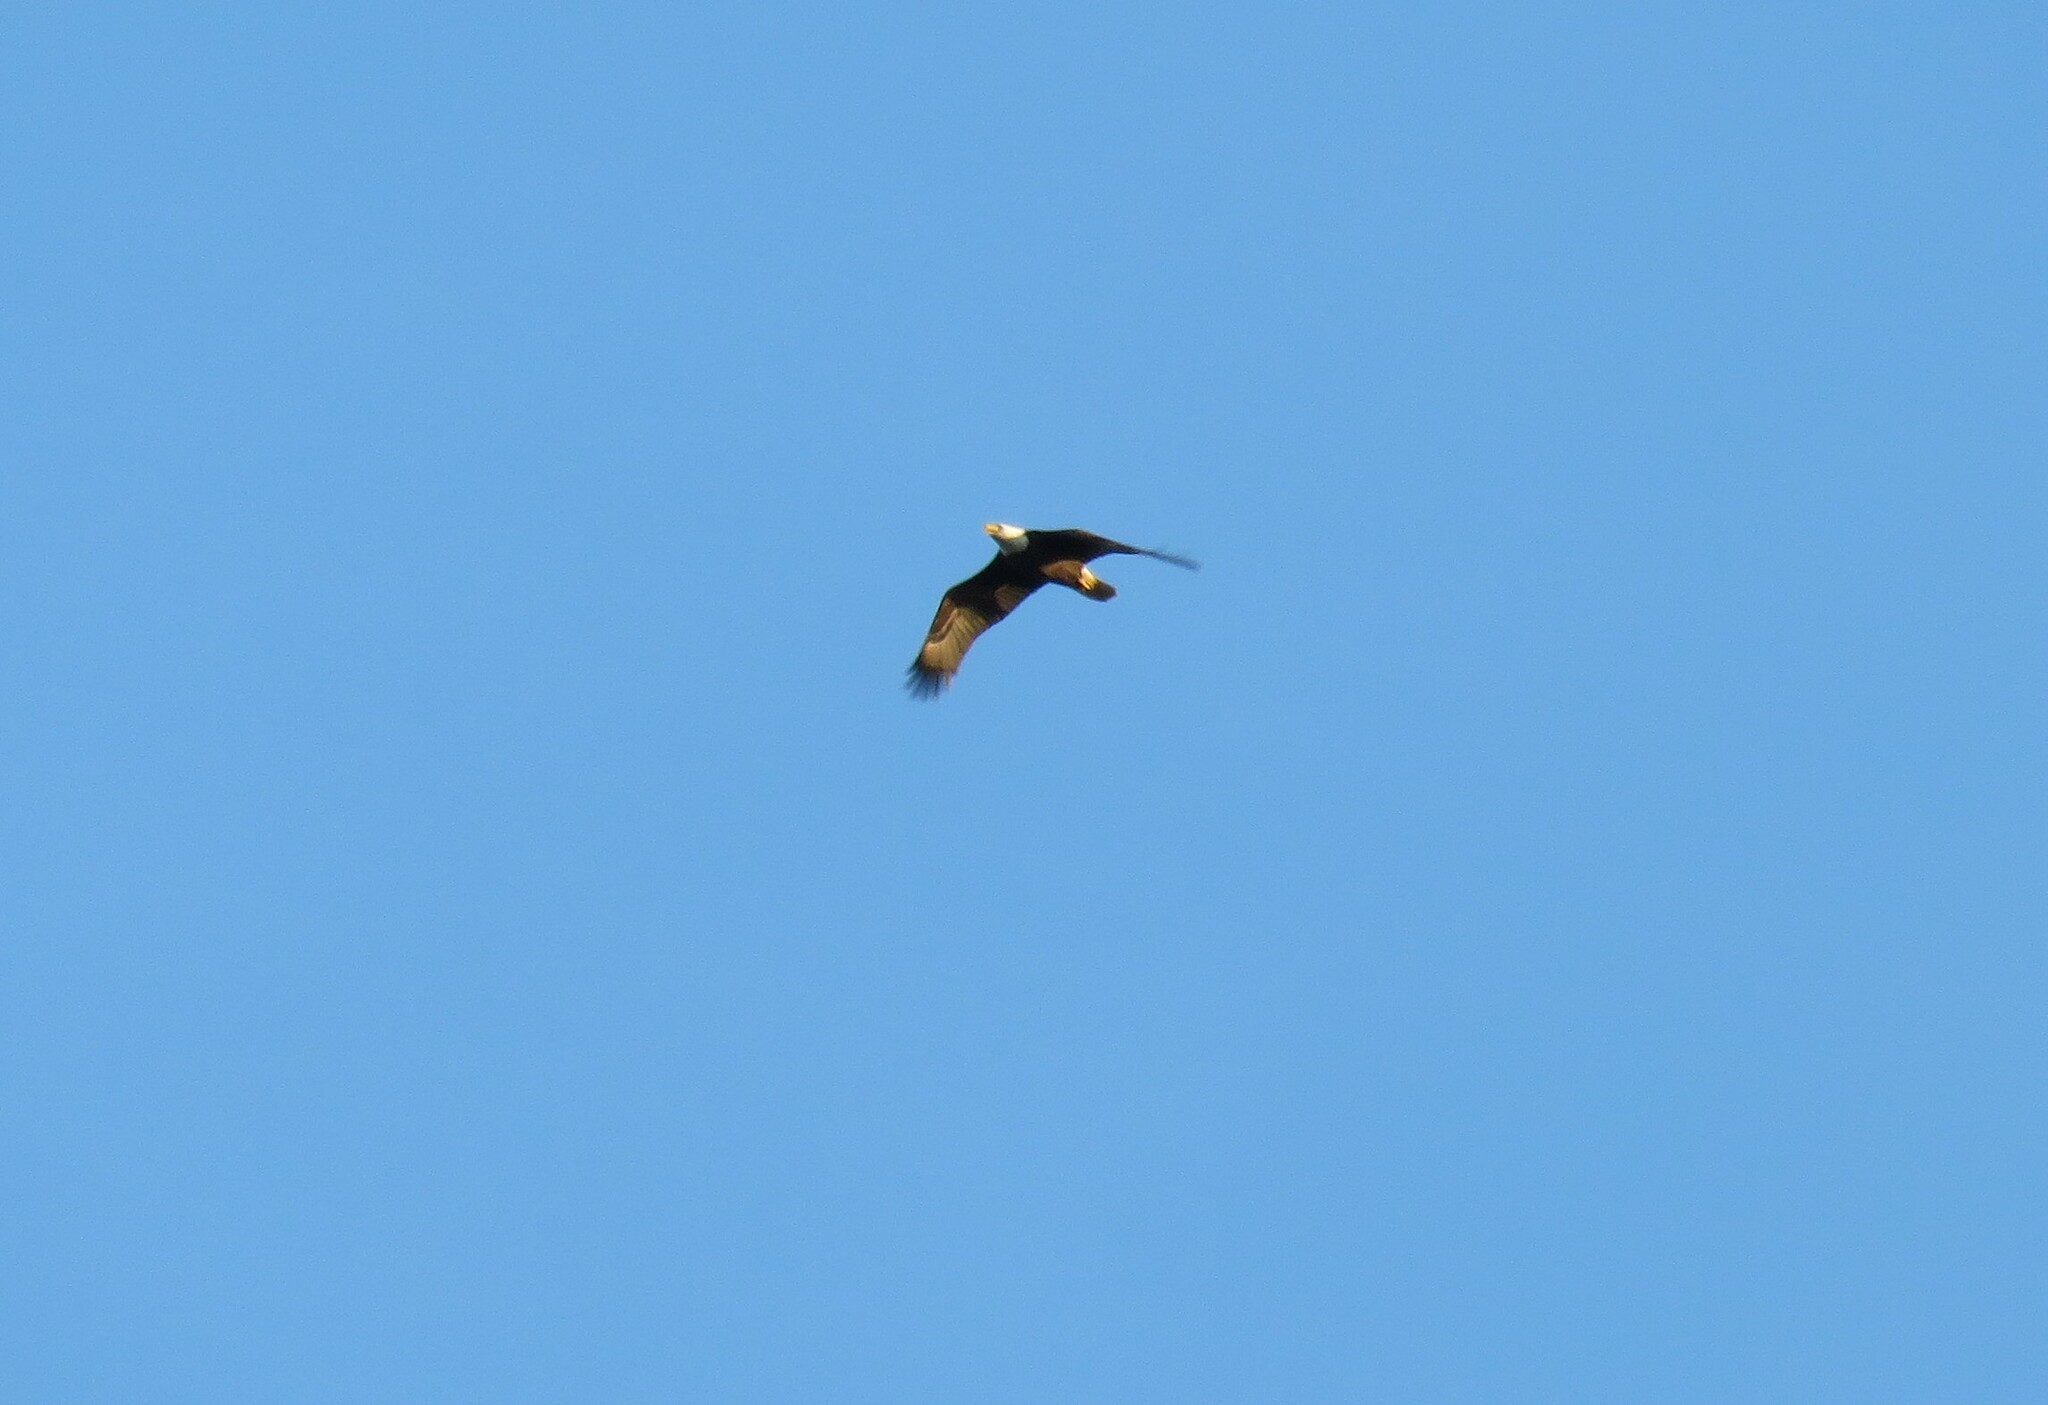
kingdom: Animalia
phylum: Chordata
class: Aves
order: Accipitriformes
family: Accipitridae
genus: Haliaeetus
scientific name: Haliaeetus leucocephalus
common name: Bald eagle
